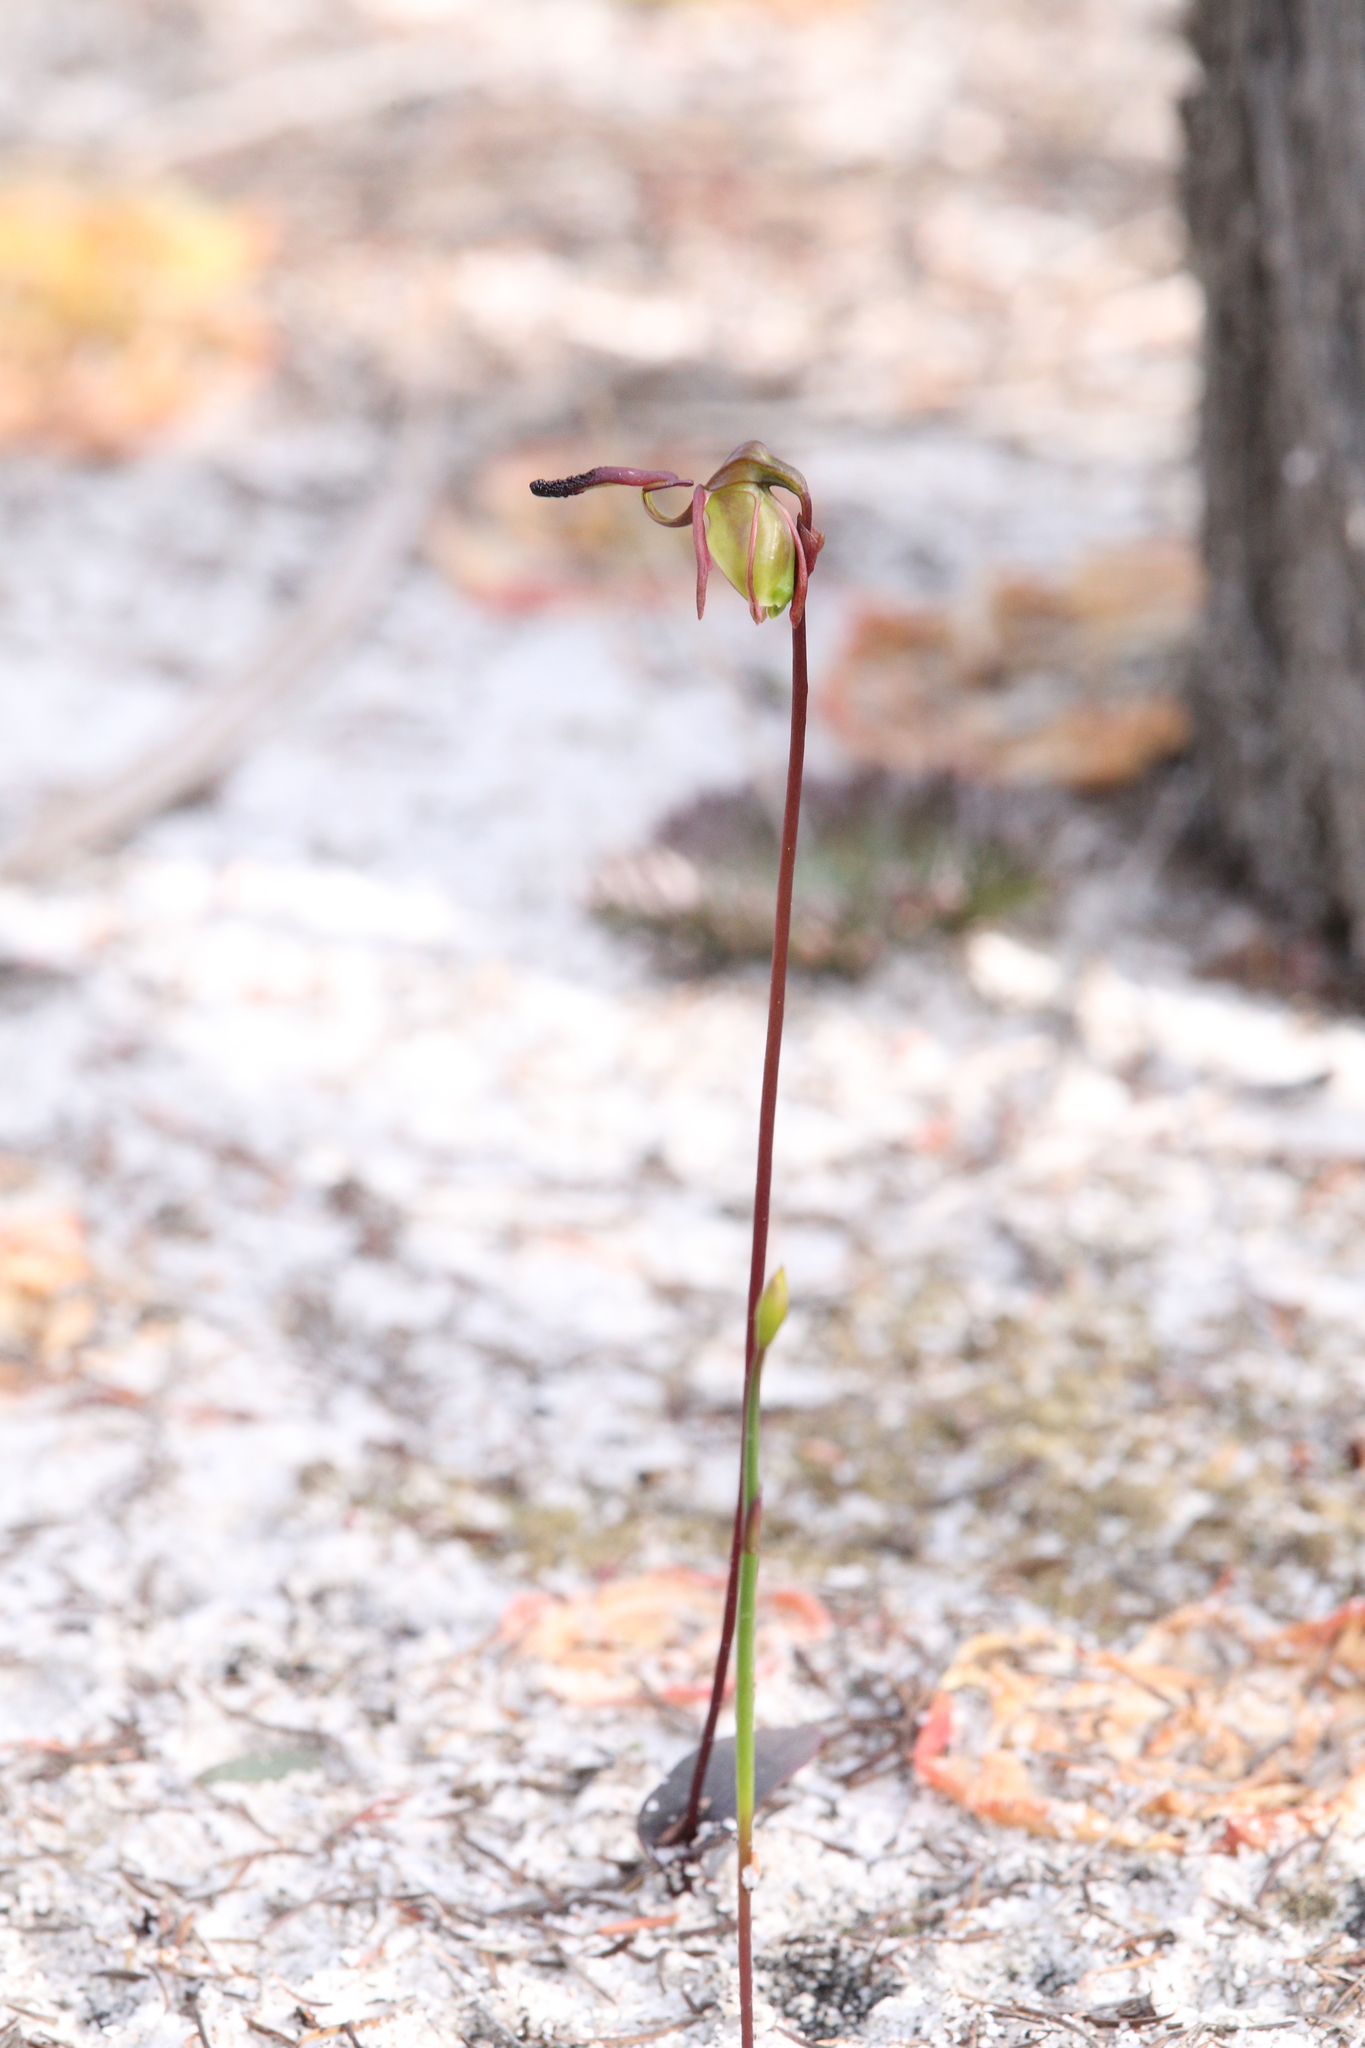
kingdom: Plantae
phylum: Tracheophyta
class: Liliopsida
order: Asparagales
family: Orchidaceae
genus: Caleana
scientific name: Caleana nigrita
